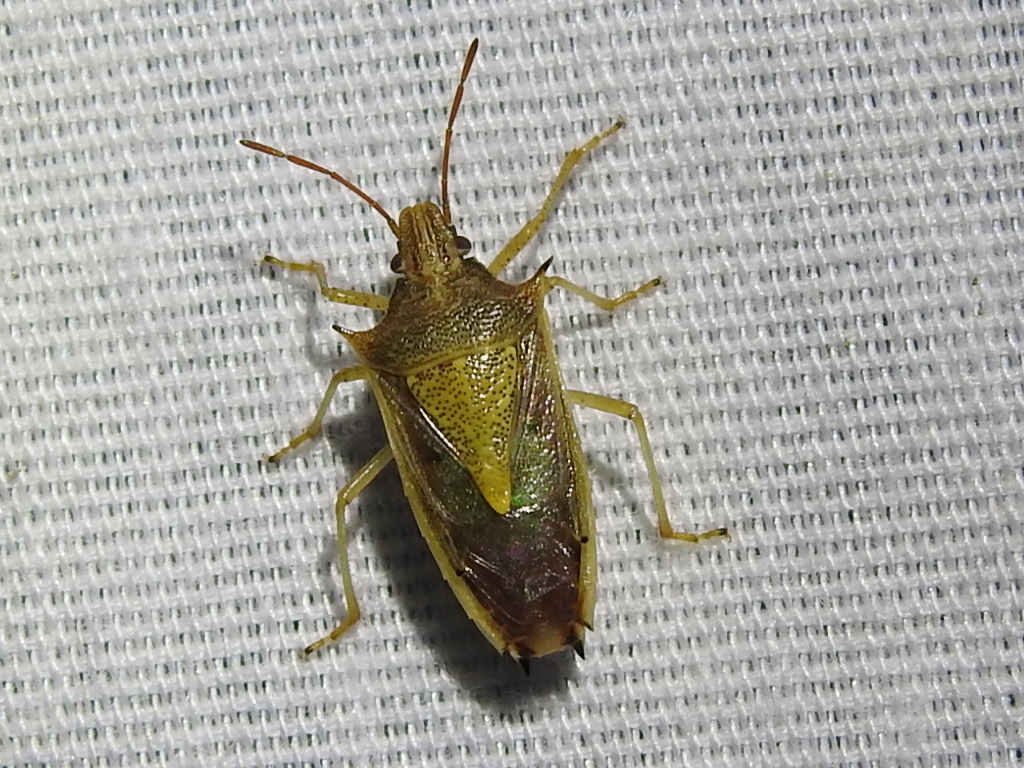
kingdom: Animalia
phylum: Arthropoda
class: Insecta
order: Hemiptera
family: Pentatomidae
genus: Oebalus
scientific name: Oebalus pugnax
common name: Rice stink bug
